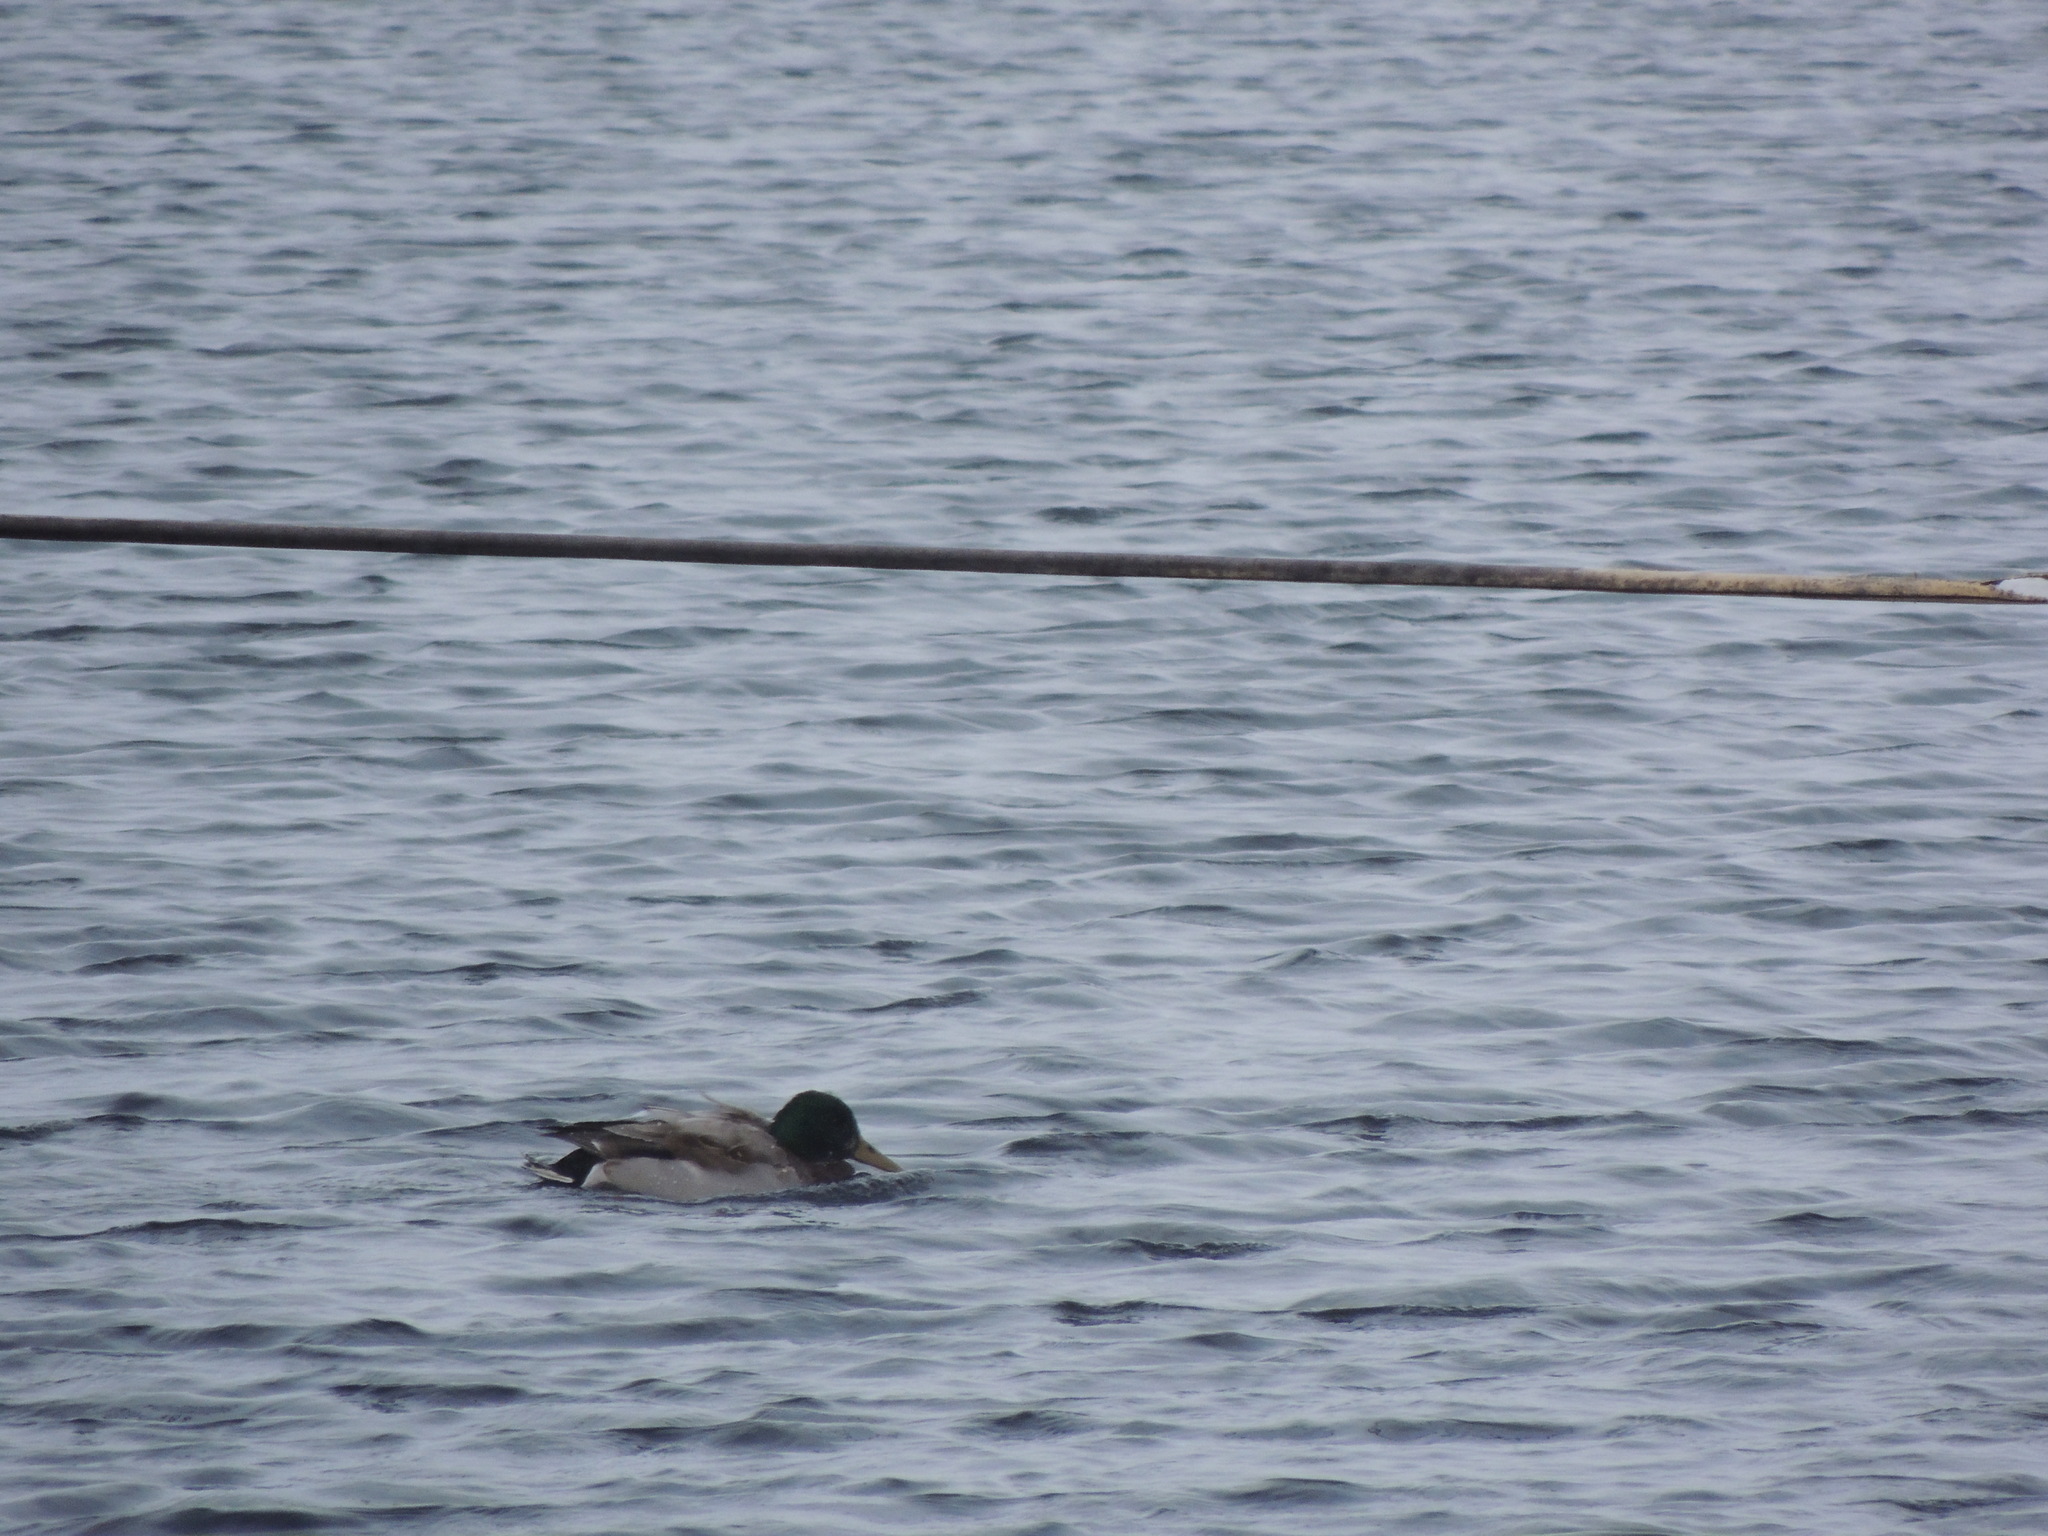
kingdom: Animalia
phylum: Chordata
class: Aves
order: Anseriformes
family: Anatidae
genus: Anas
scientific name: Anas platyrhynchos
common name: Mallard
